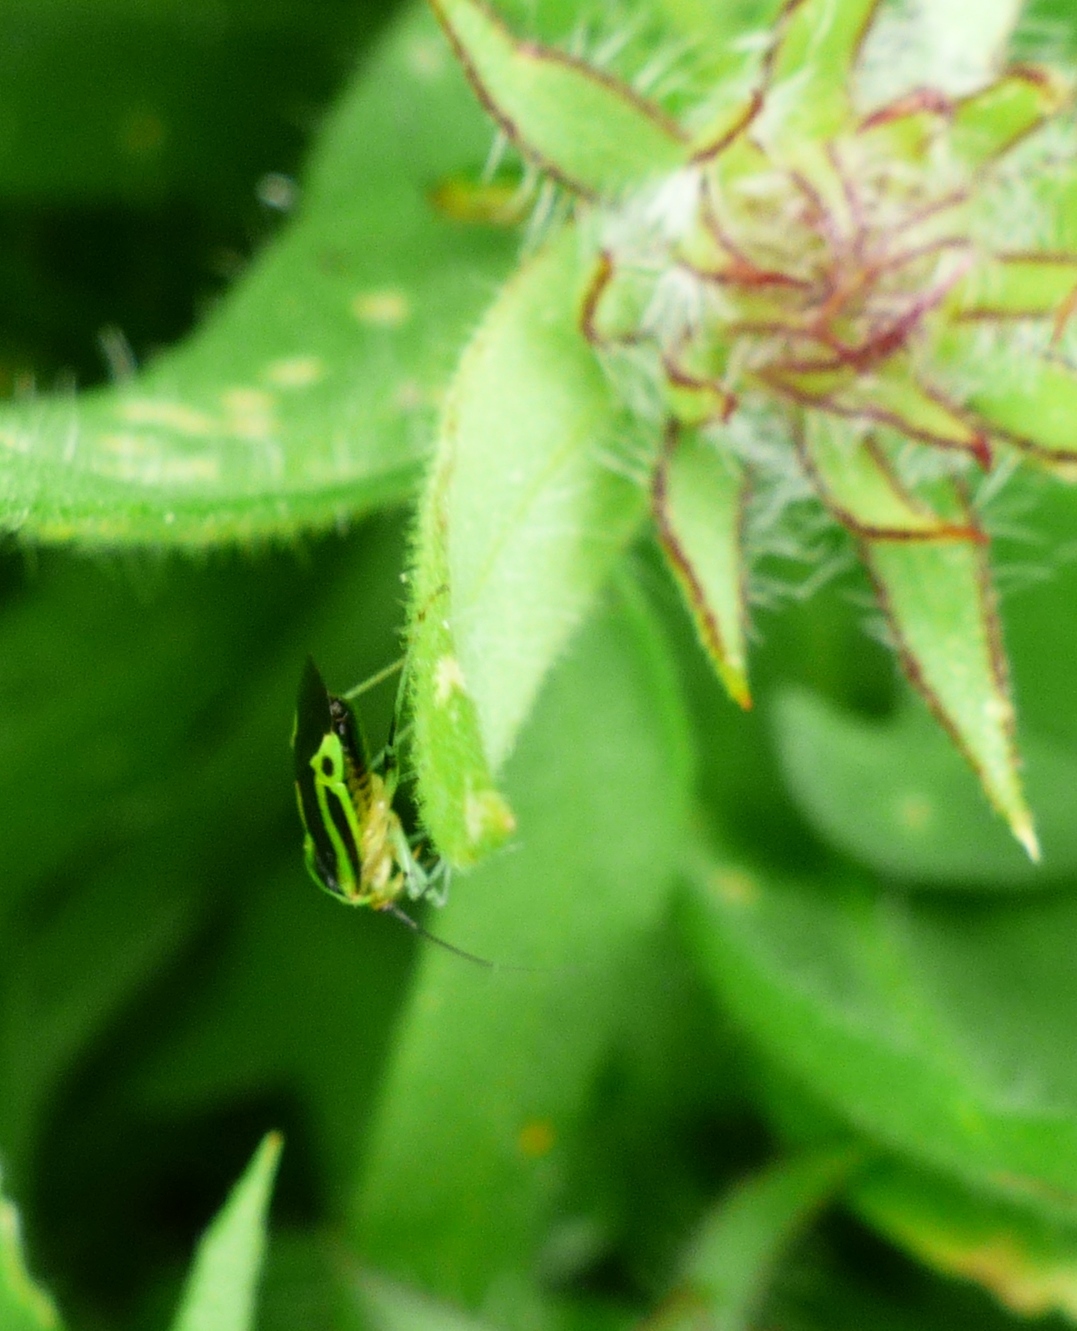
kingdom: Animalia
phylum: Arthropoda
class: Insecta
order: Hemiptera
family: Miridae
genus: Poecilocapsus
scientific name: Poecilocapsus lineatus
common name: Four-lined plant bug
